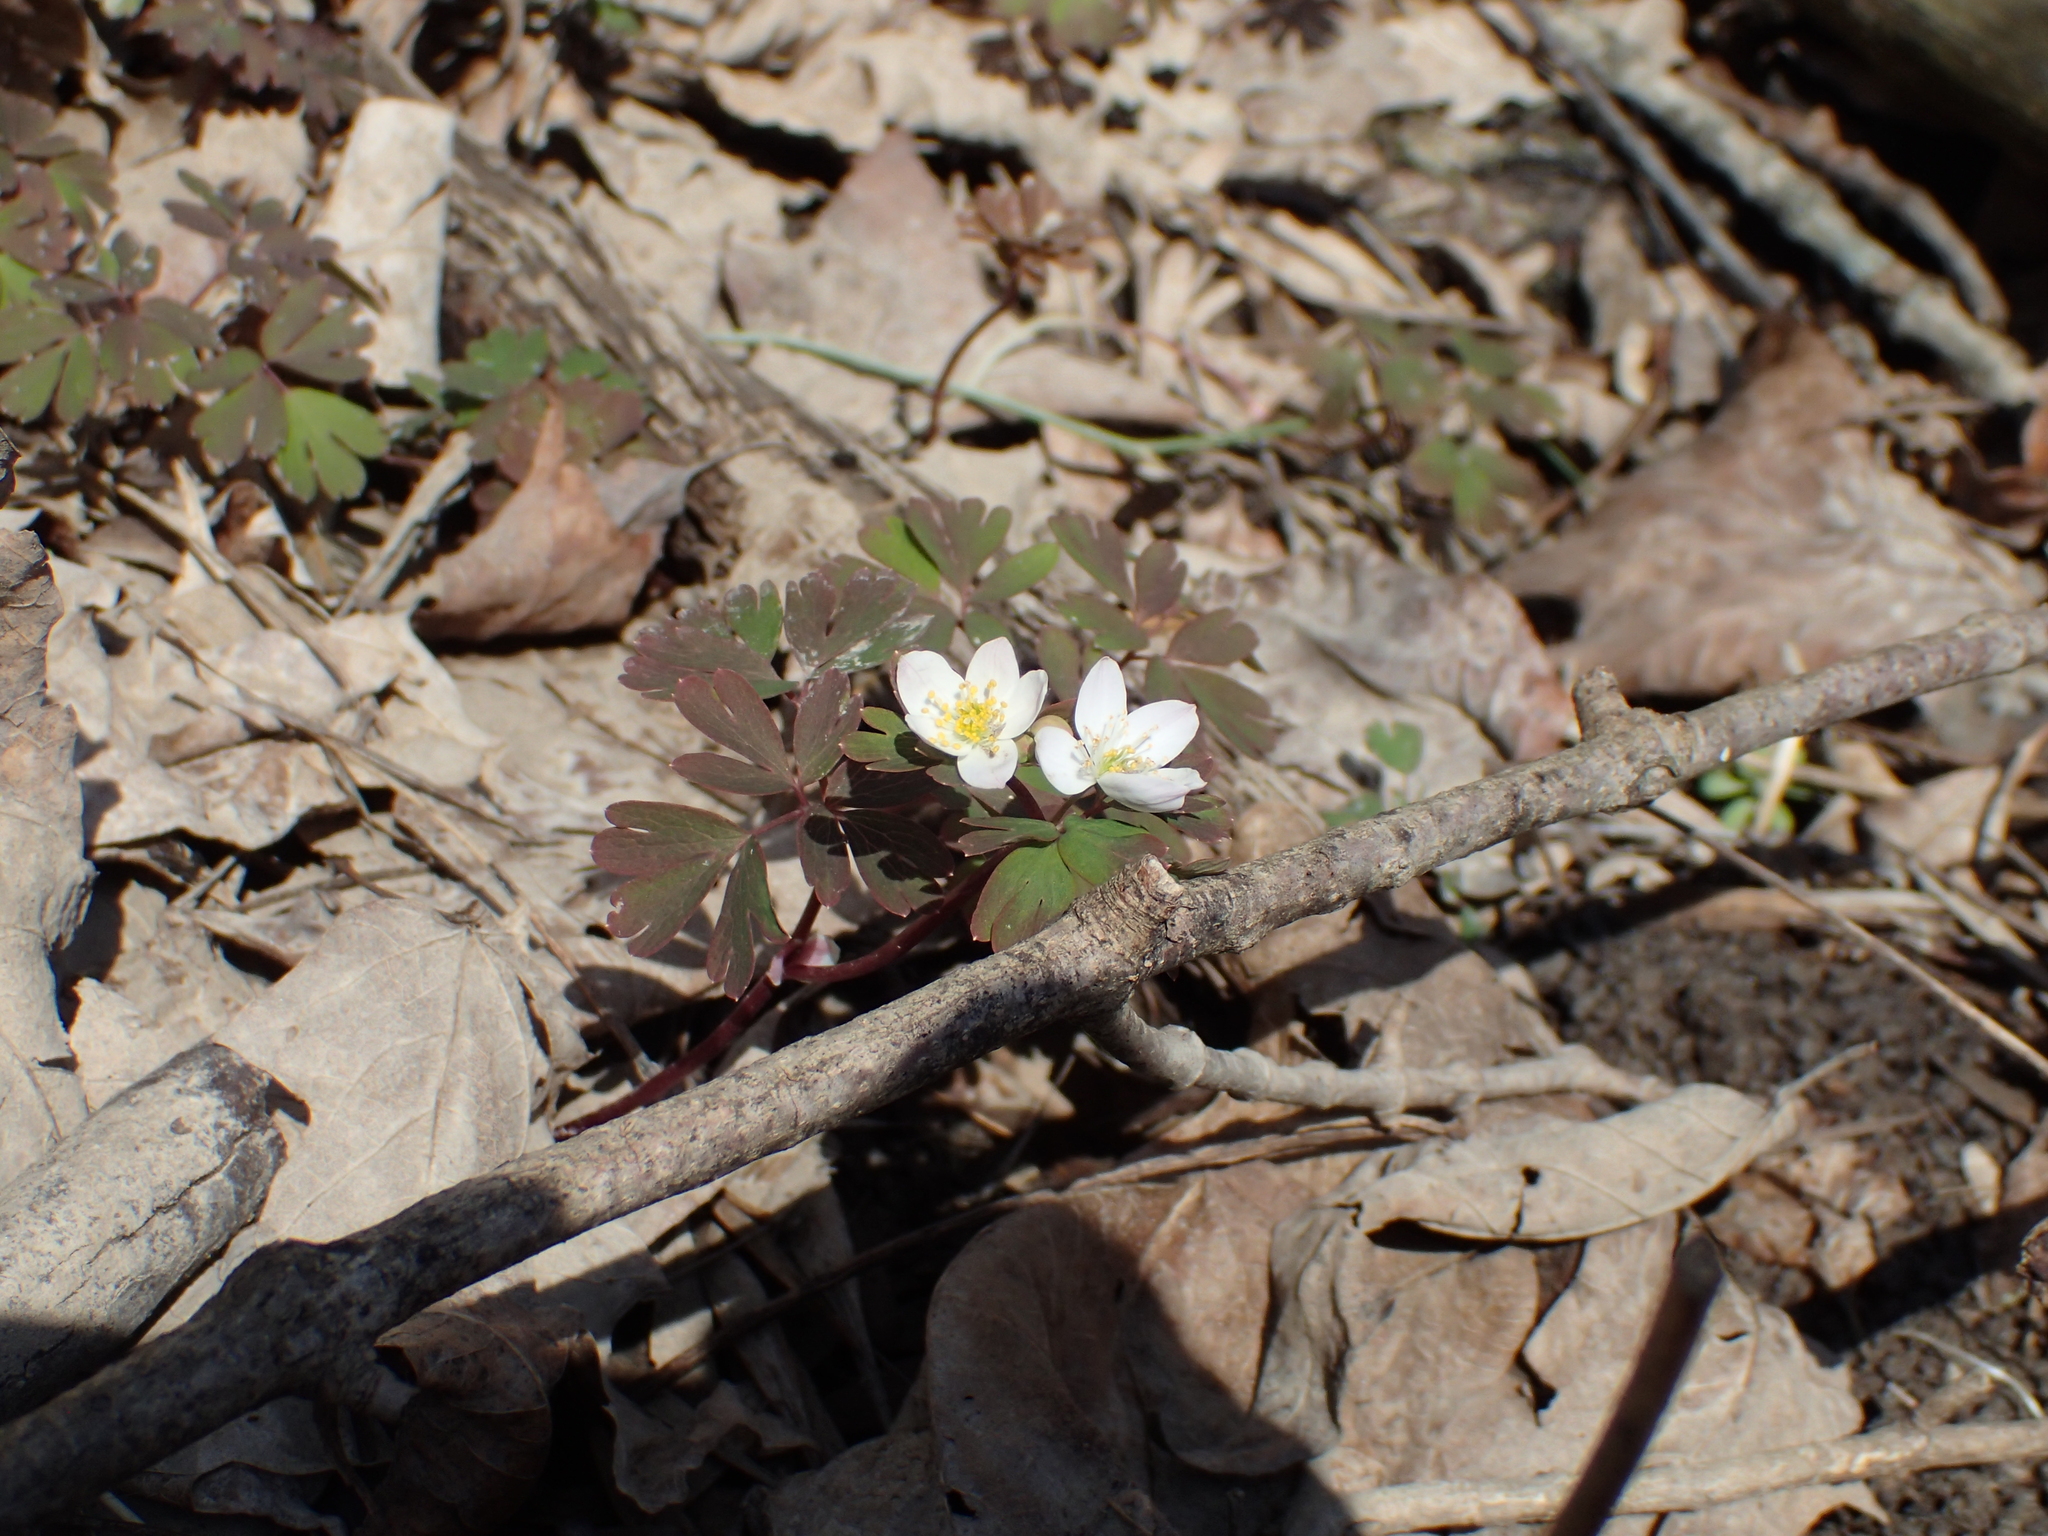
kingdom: Plantae
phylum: Tracheophyta
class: Magnoliopsida
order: Ranunculales
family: Ranunculaceae
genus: Enemion
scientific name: Enemion biternatum
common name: Eastern false rue-anemone
